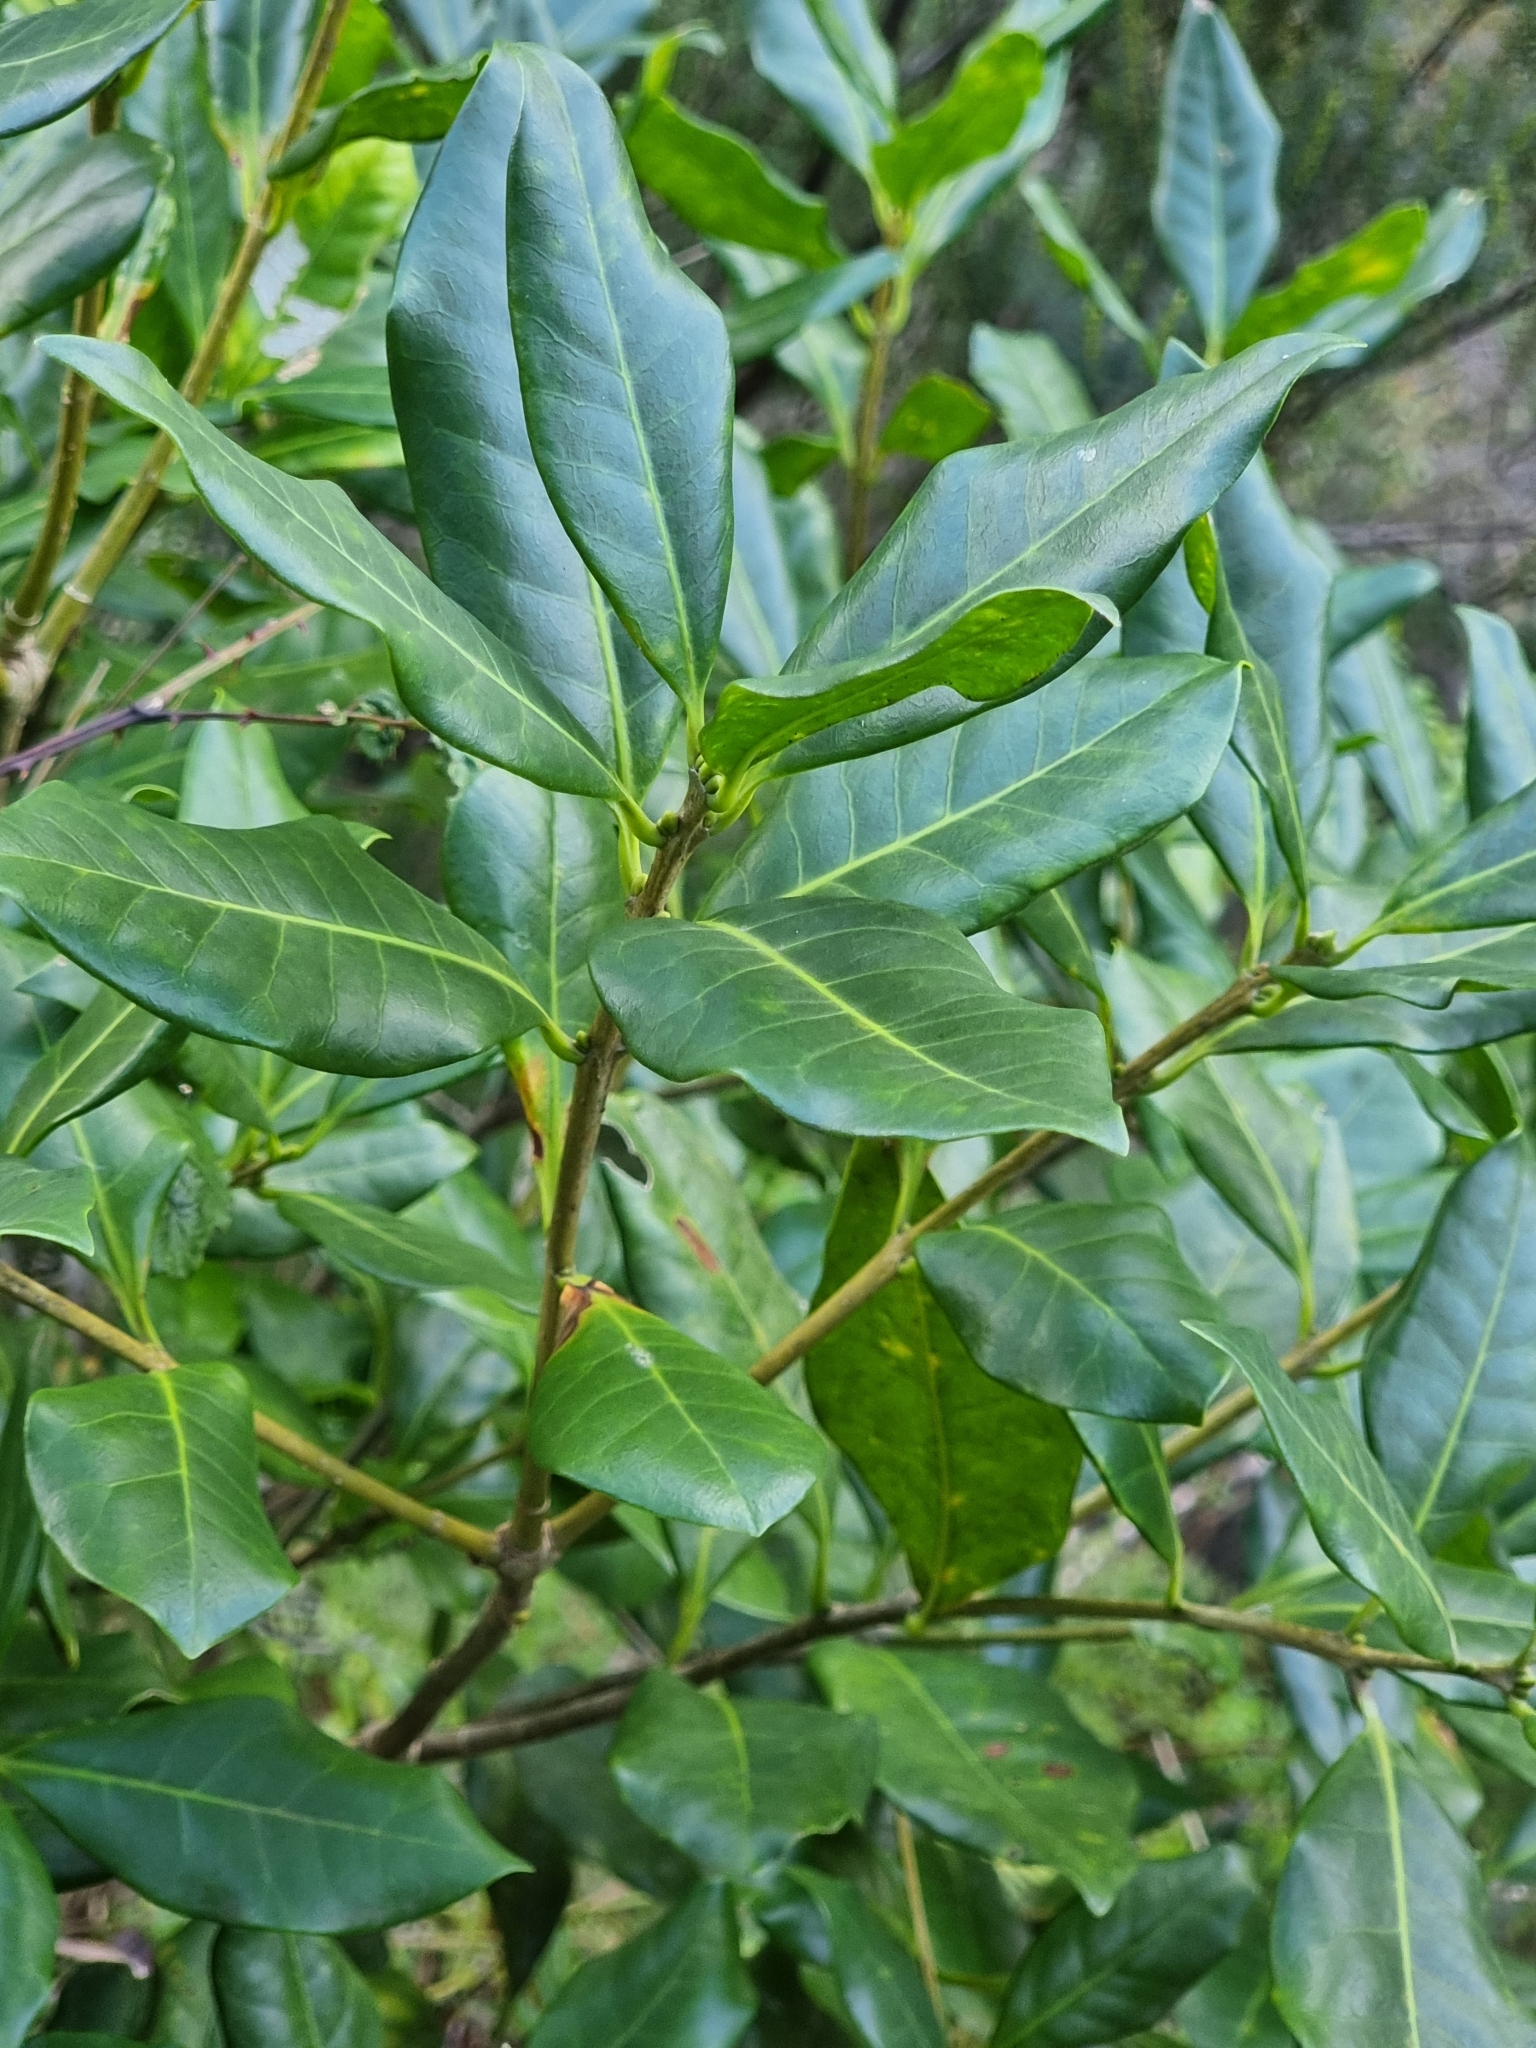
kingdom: Plantae
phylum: Tracheophyta
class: Magnoliopsida
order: Lamiales
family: Oleaceae
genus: Picconia
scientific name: Picconia excelsa
